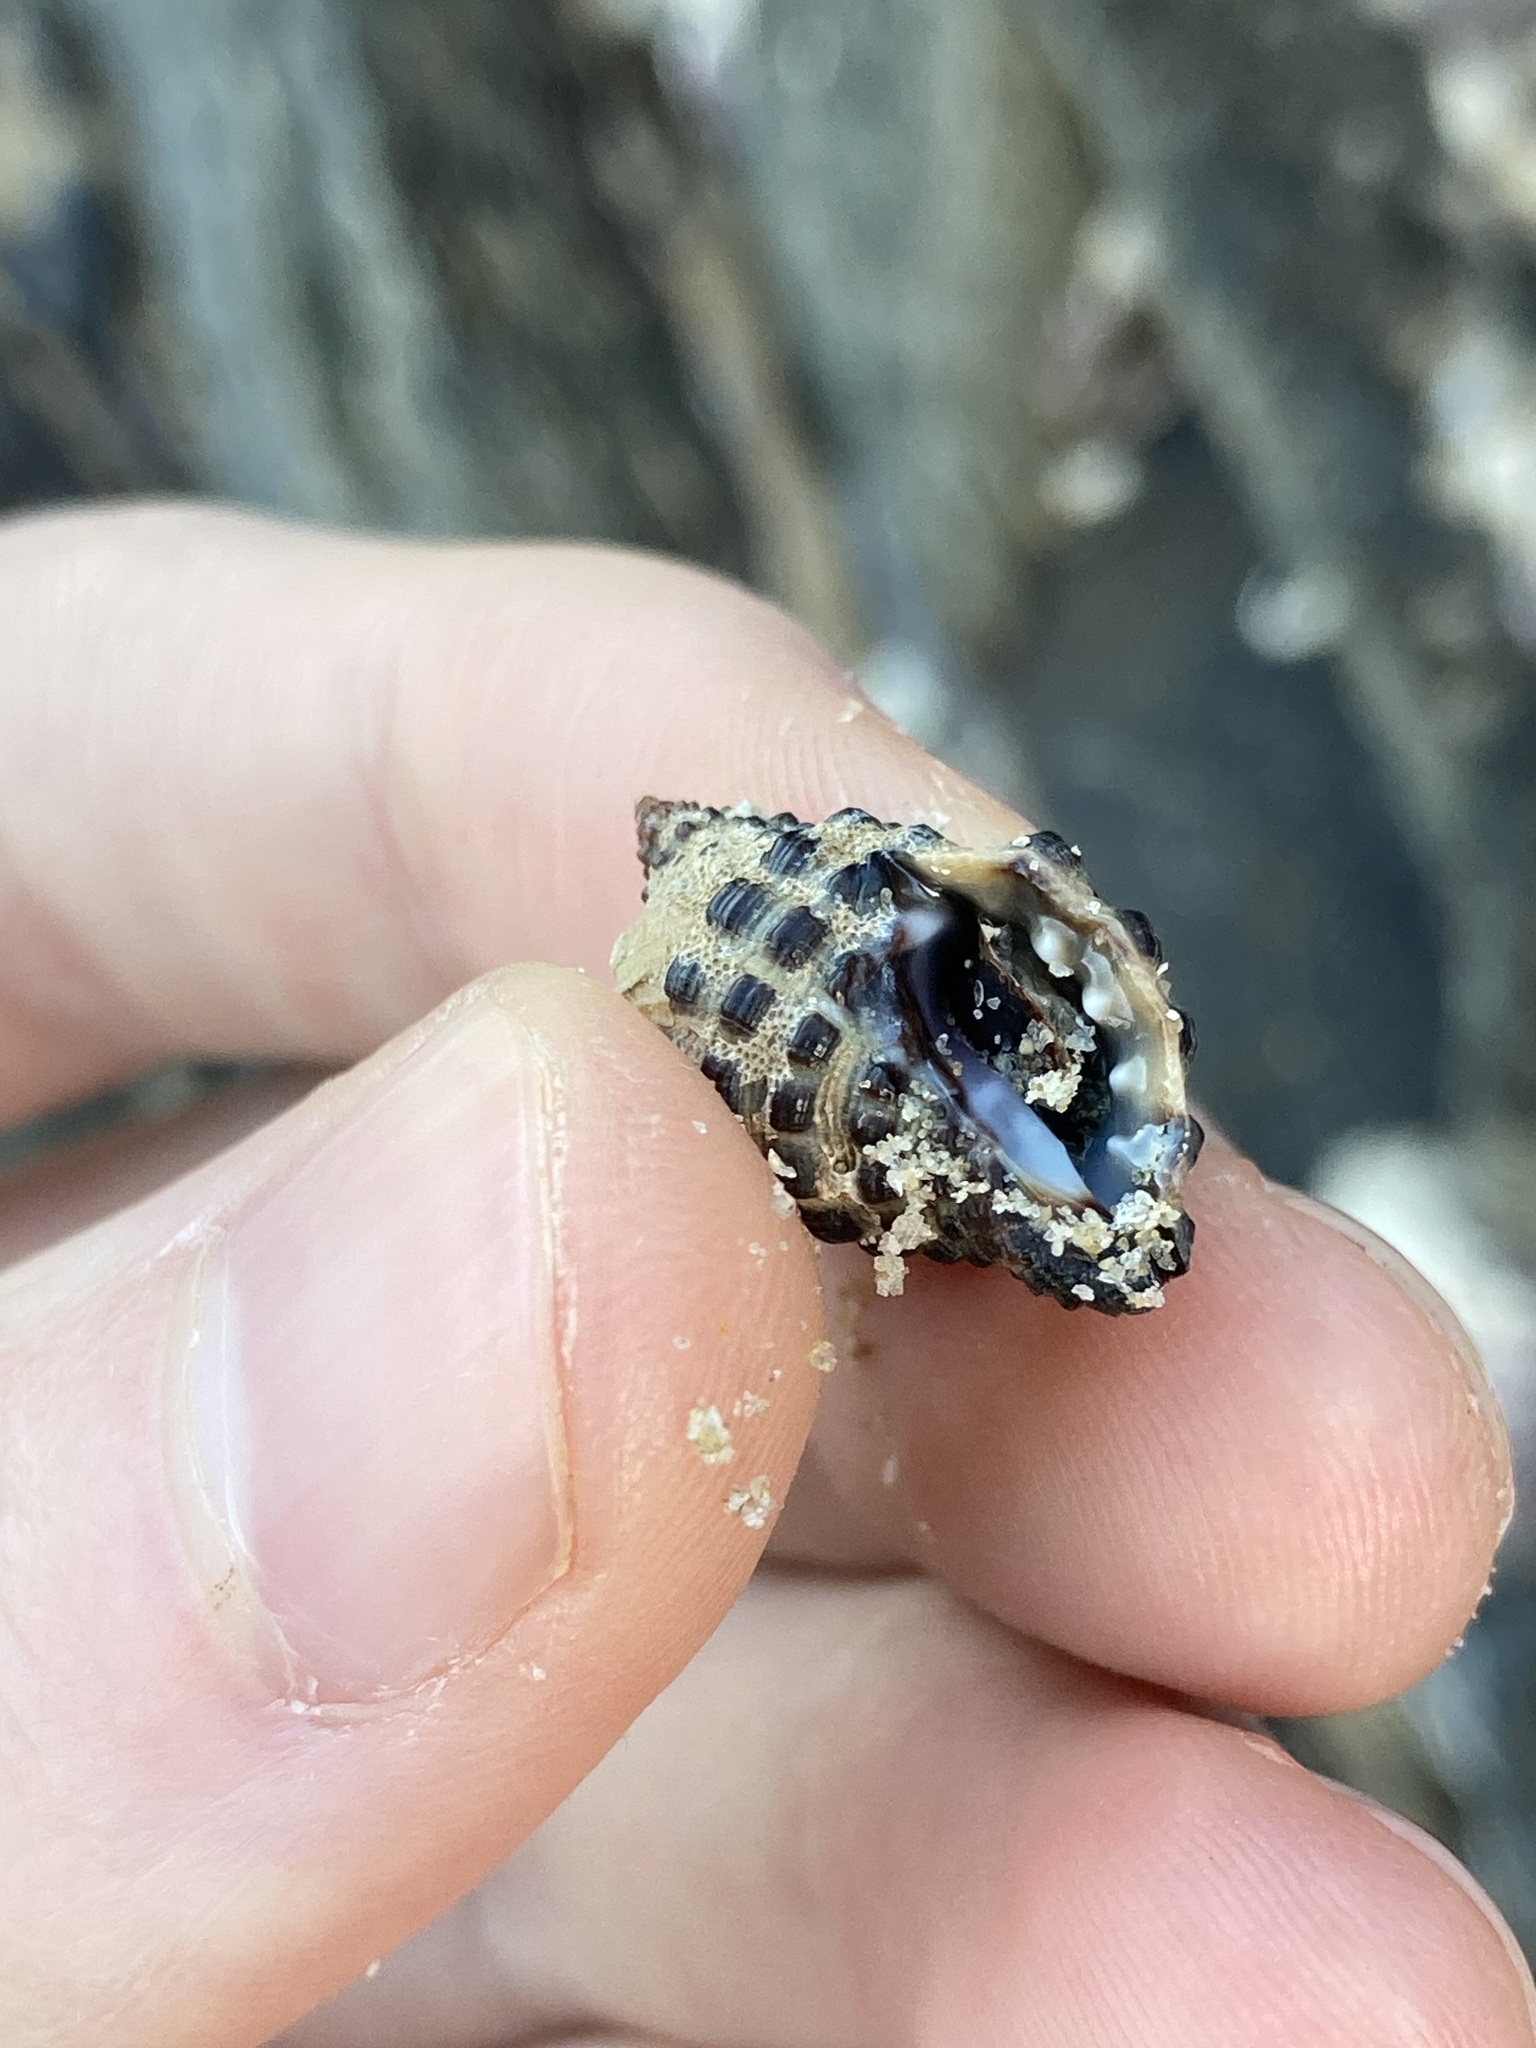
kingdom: Animalia
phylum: Mollusca
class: Gastropoda
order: Neogastropoda
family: Muricidae
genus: Tenguella
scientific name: Tenguella marginalba
